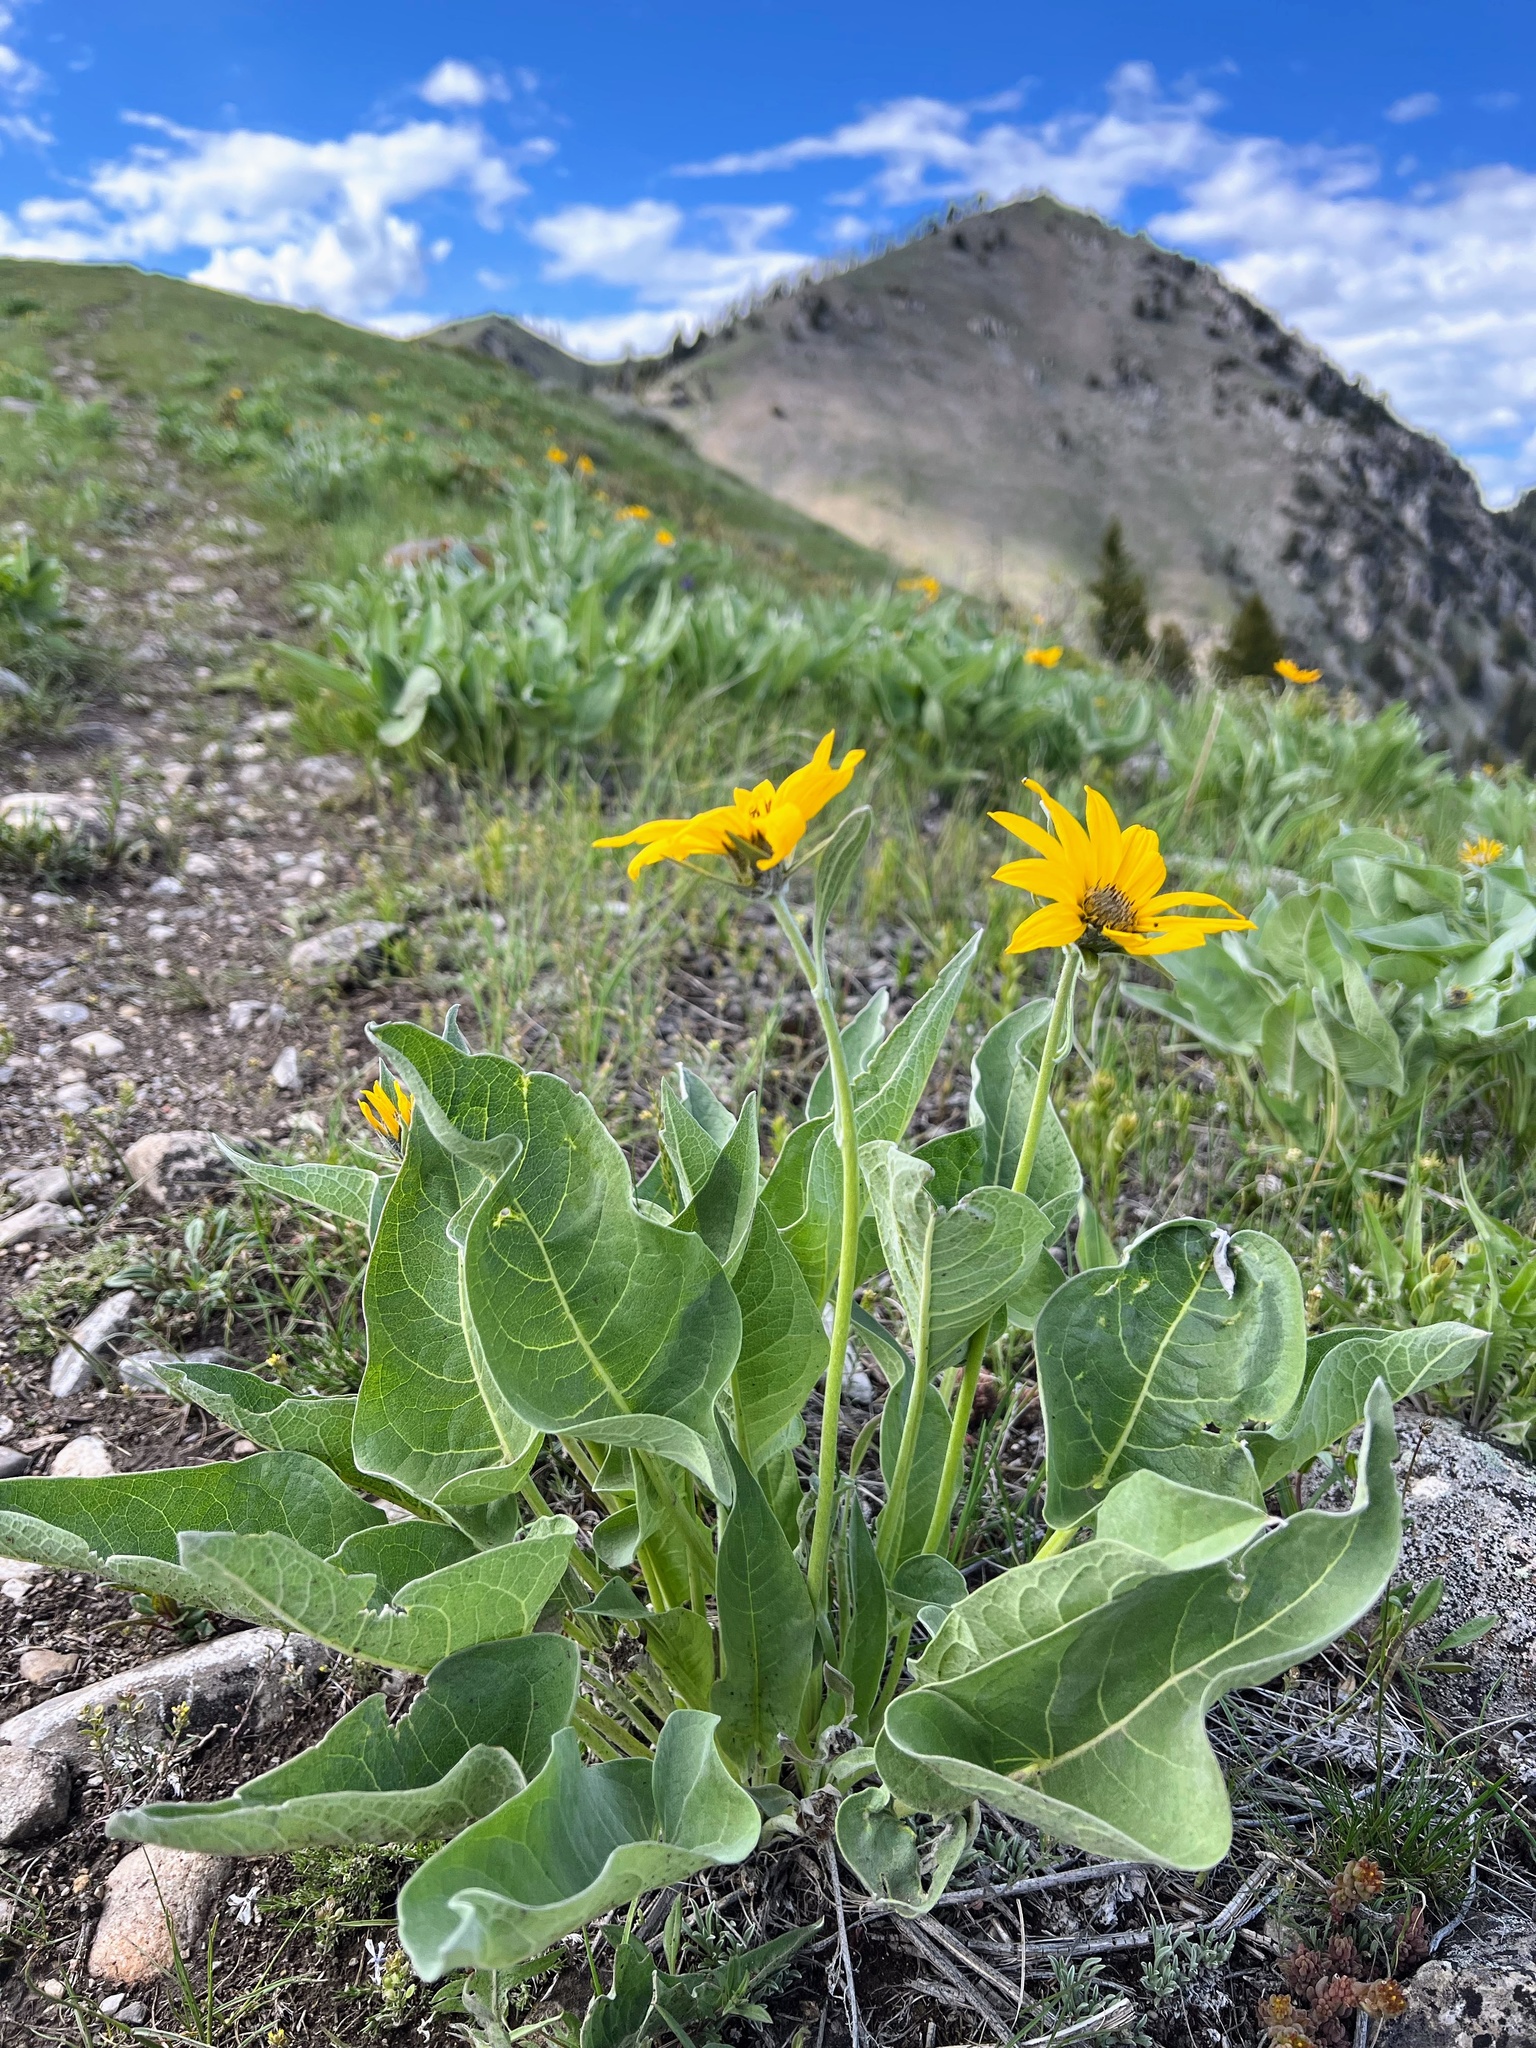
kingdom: Plantae
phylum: Tracheophyta
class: Magnoliopsida
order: Asterales
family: Asteraceae
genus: Wyethia
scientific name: Wyethia sagittata
